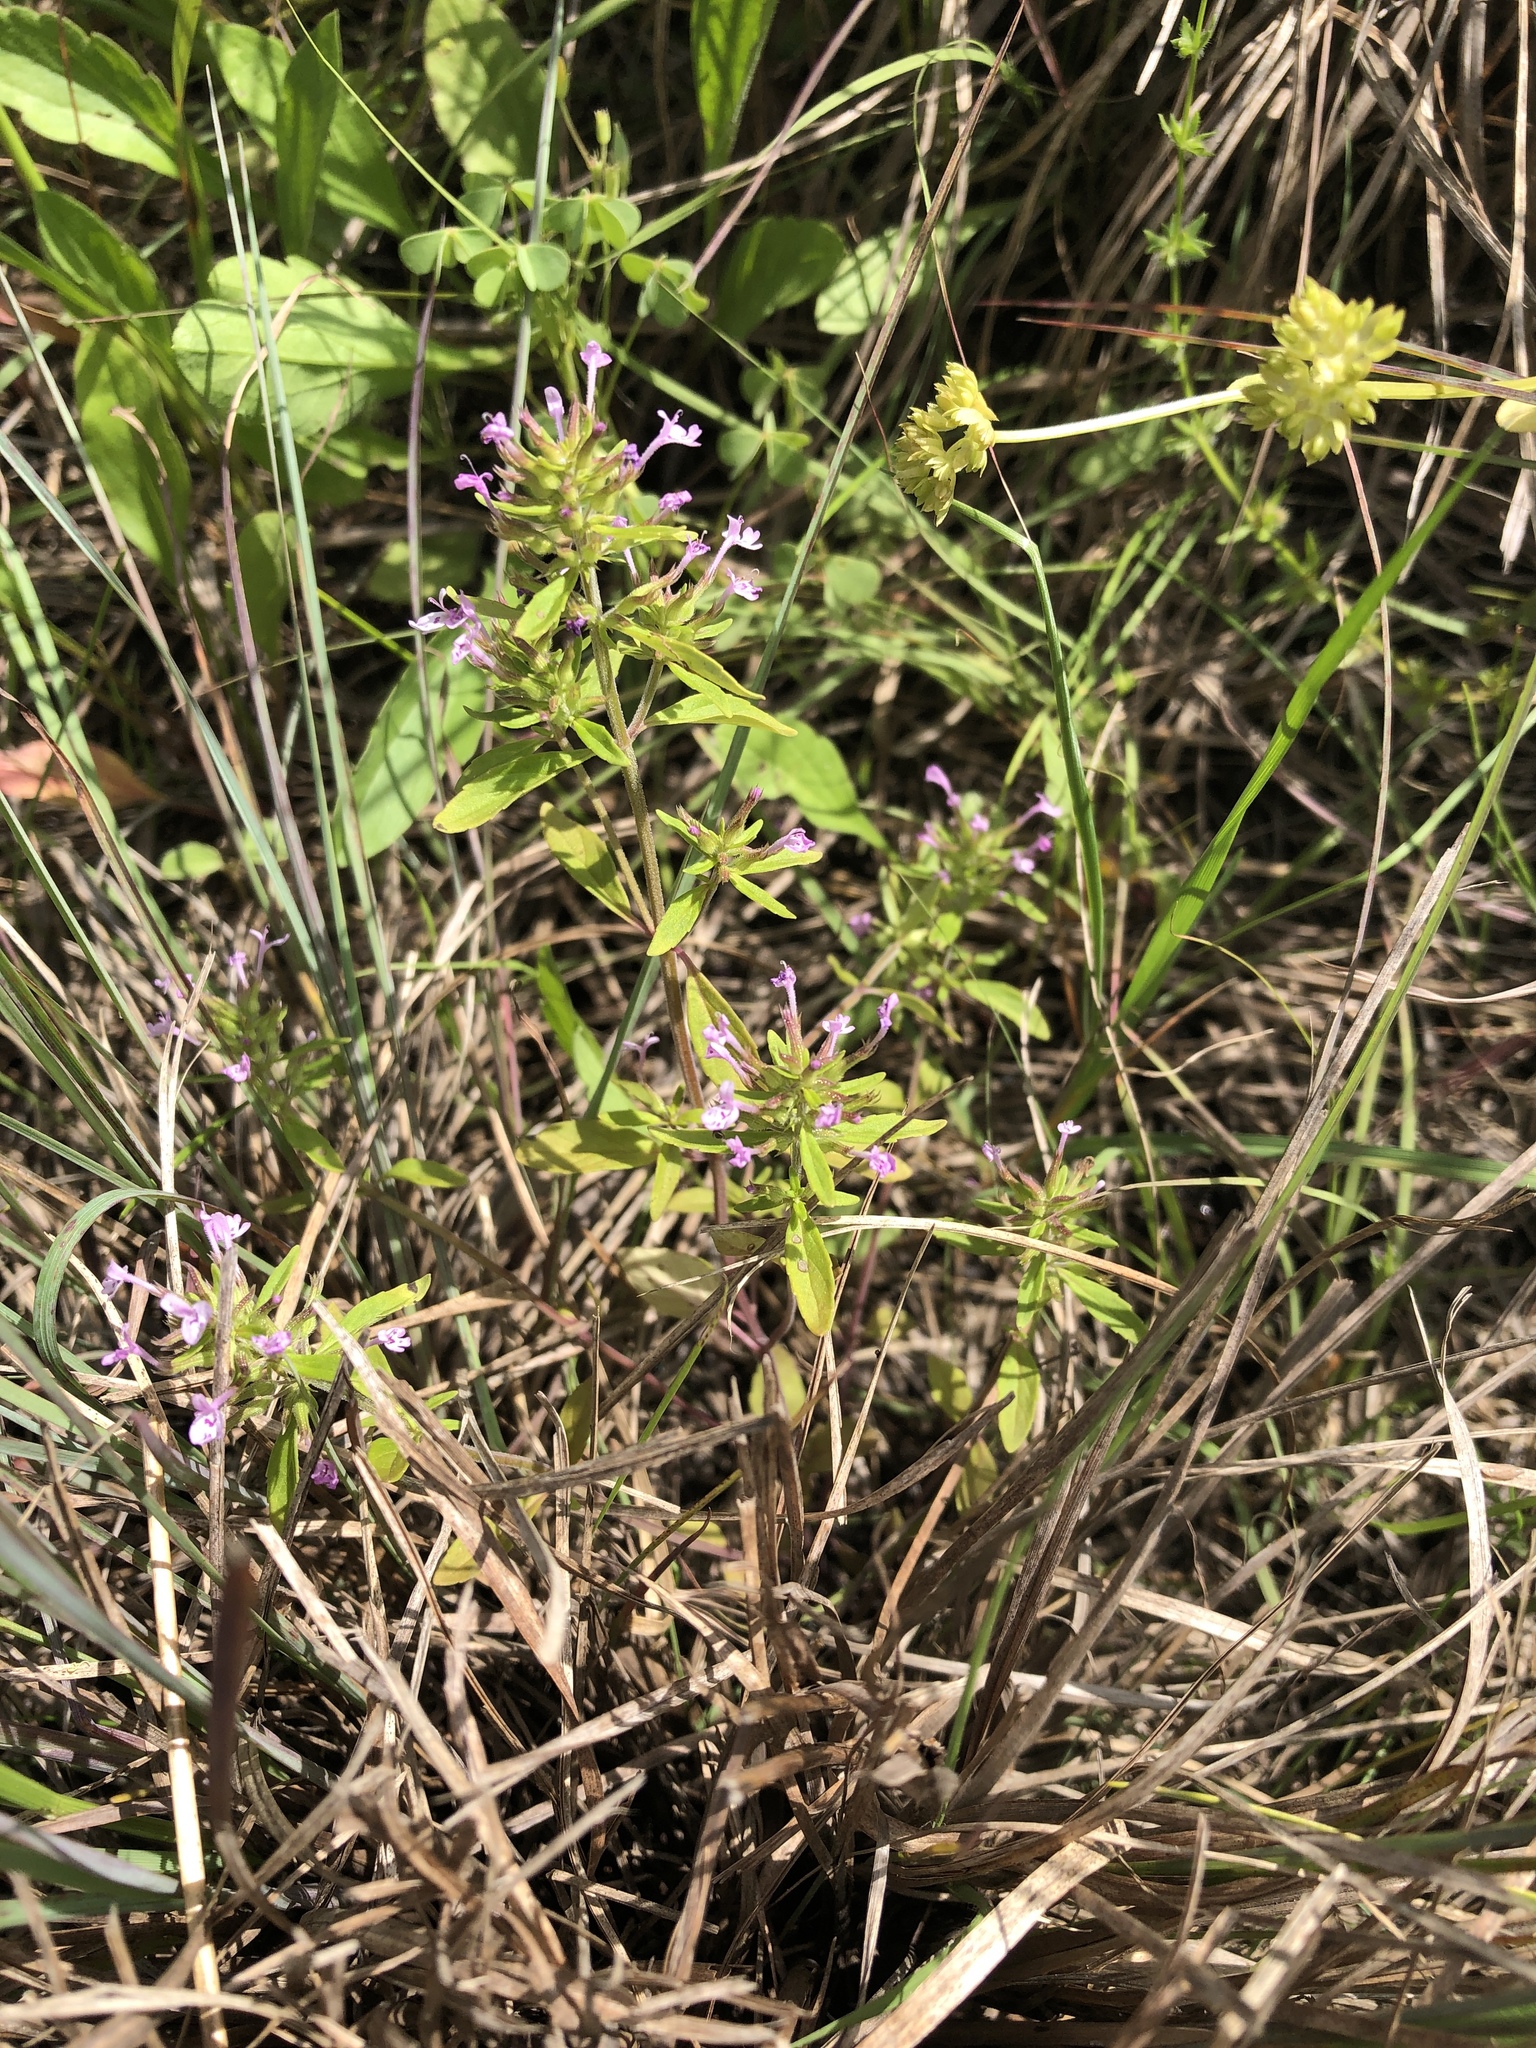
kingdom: Plantae
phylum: Tracheophyta
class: Magnoliopsida
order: Lamiales
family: Lamiaceae
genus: Hedeoma
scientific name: Hedeoma acinoides
